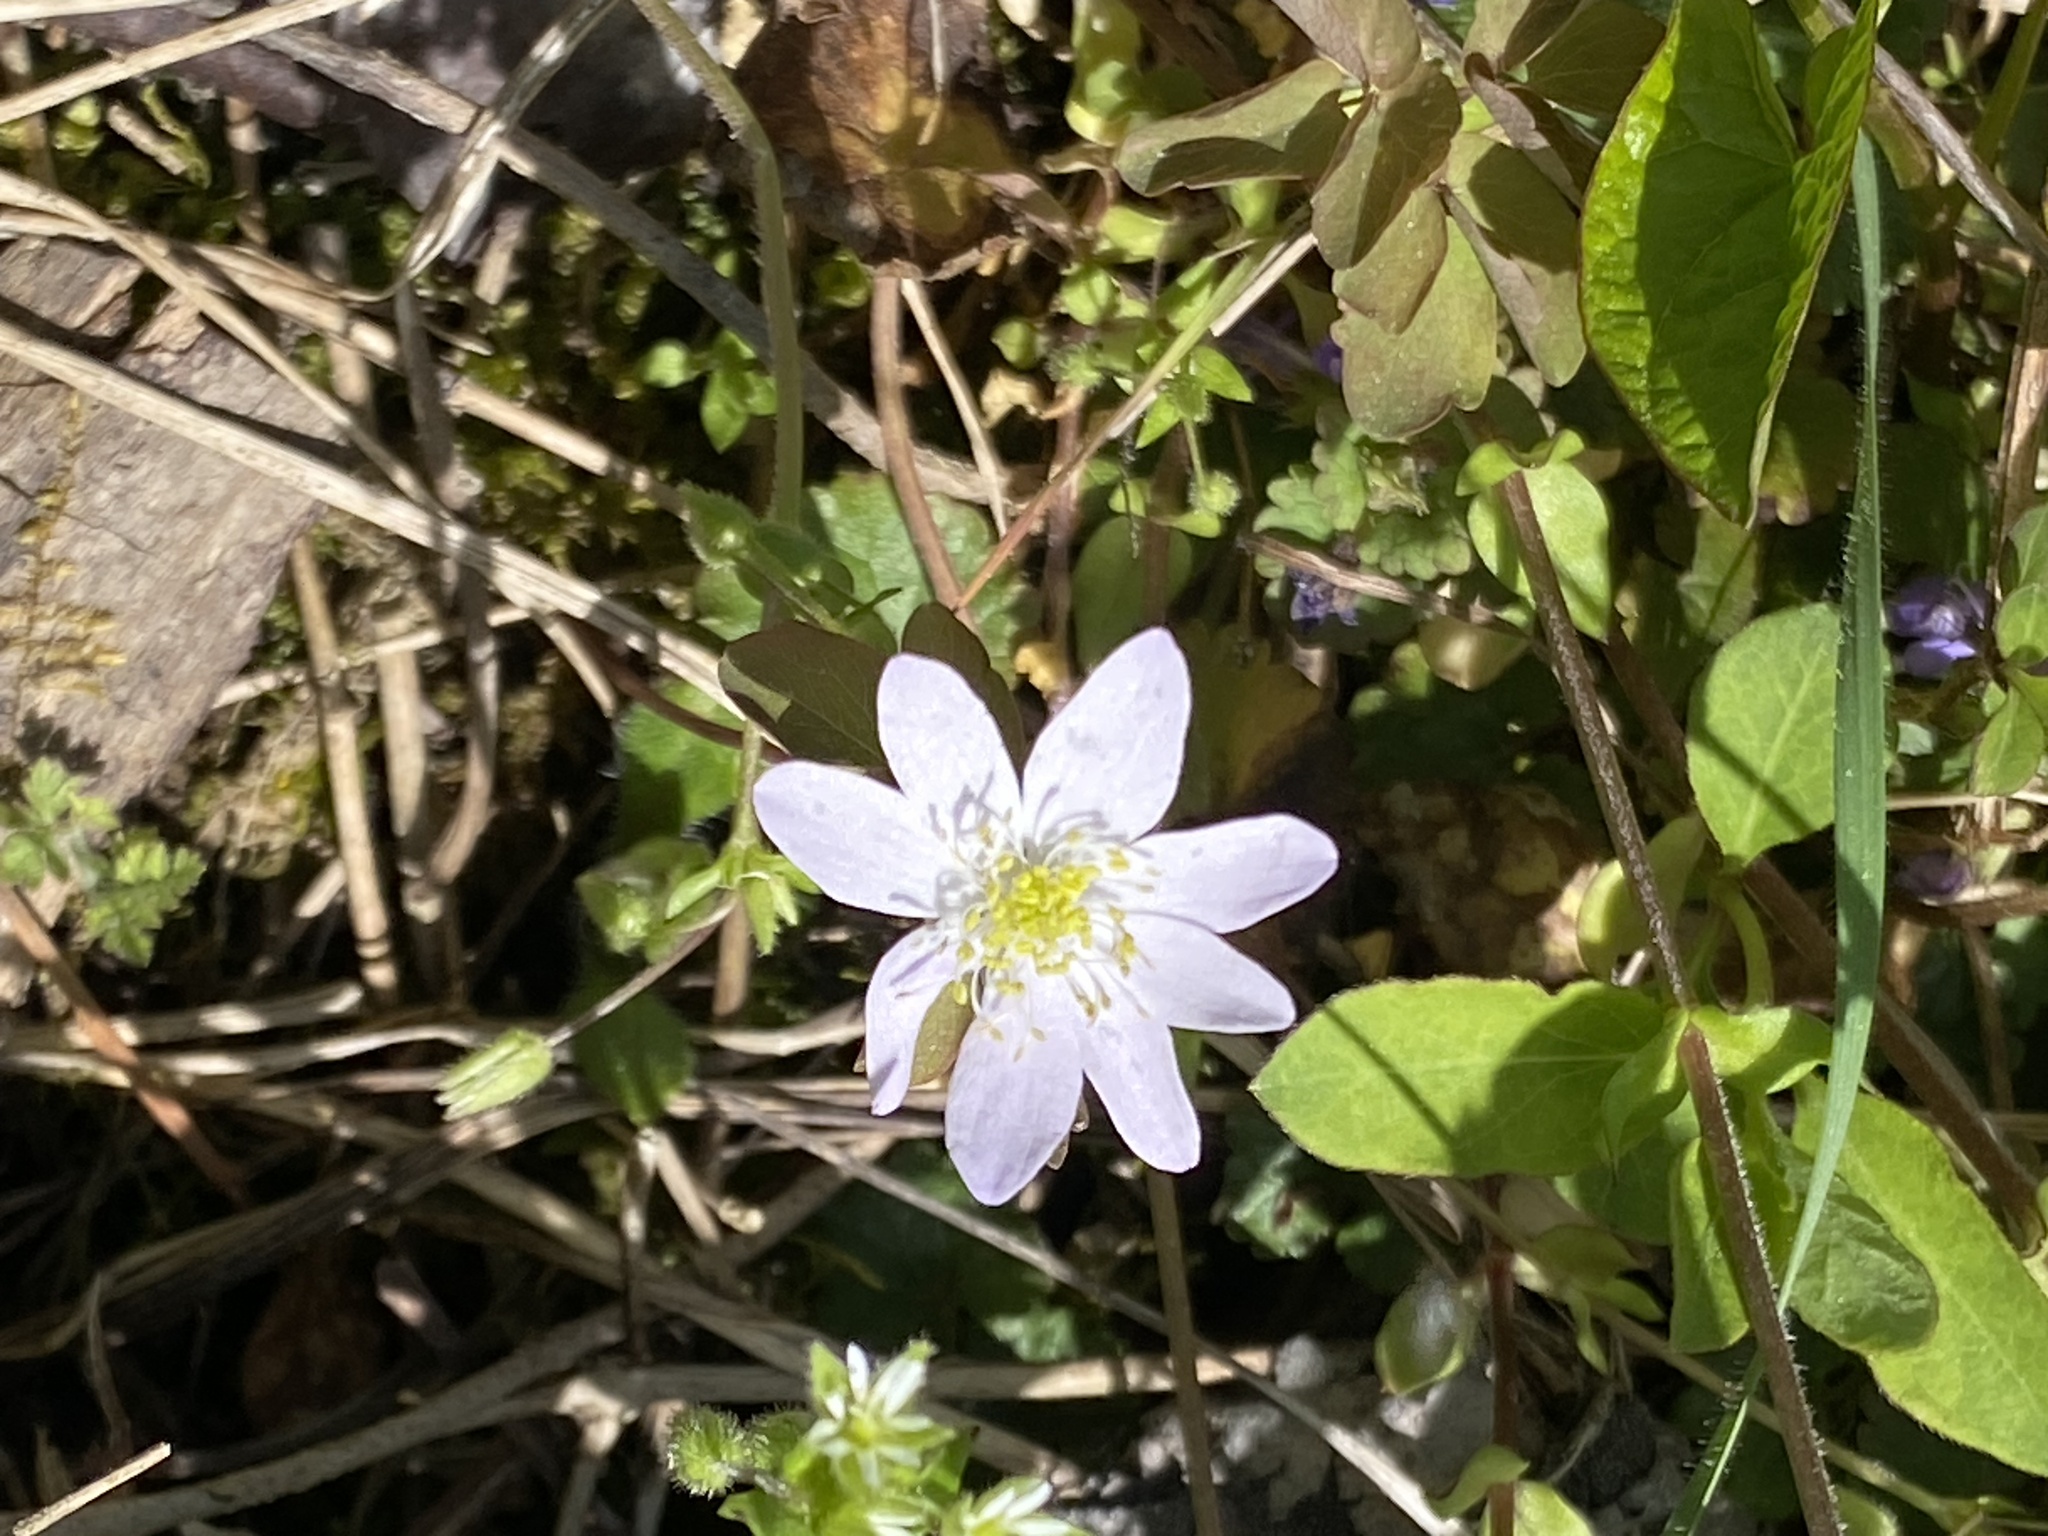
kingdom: Plantae
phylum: Tracheophyta
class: Magnoliopsida
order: Ranunculales
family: Ranunculaceae
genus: Thalictrum
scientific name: Thalictrum thalictroides
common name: Rue-anemone
